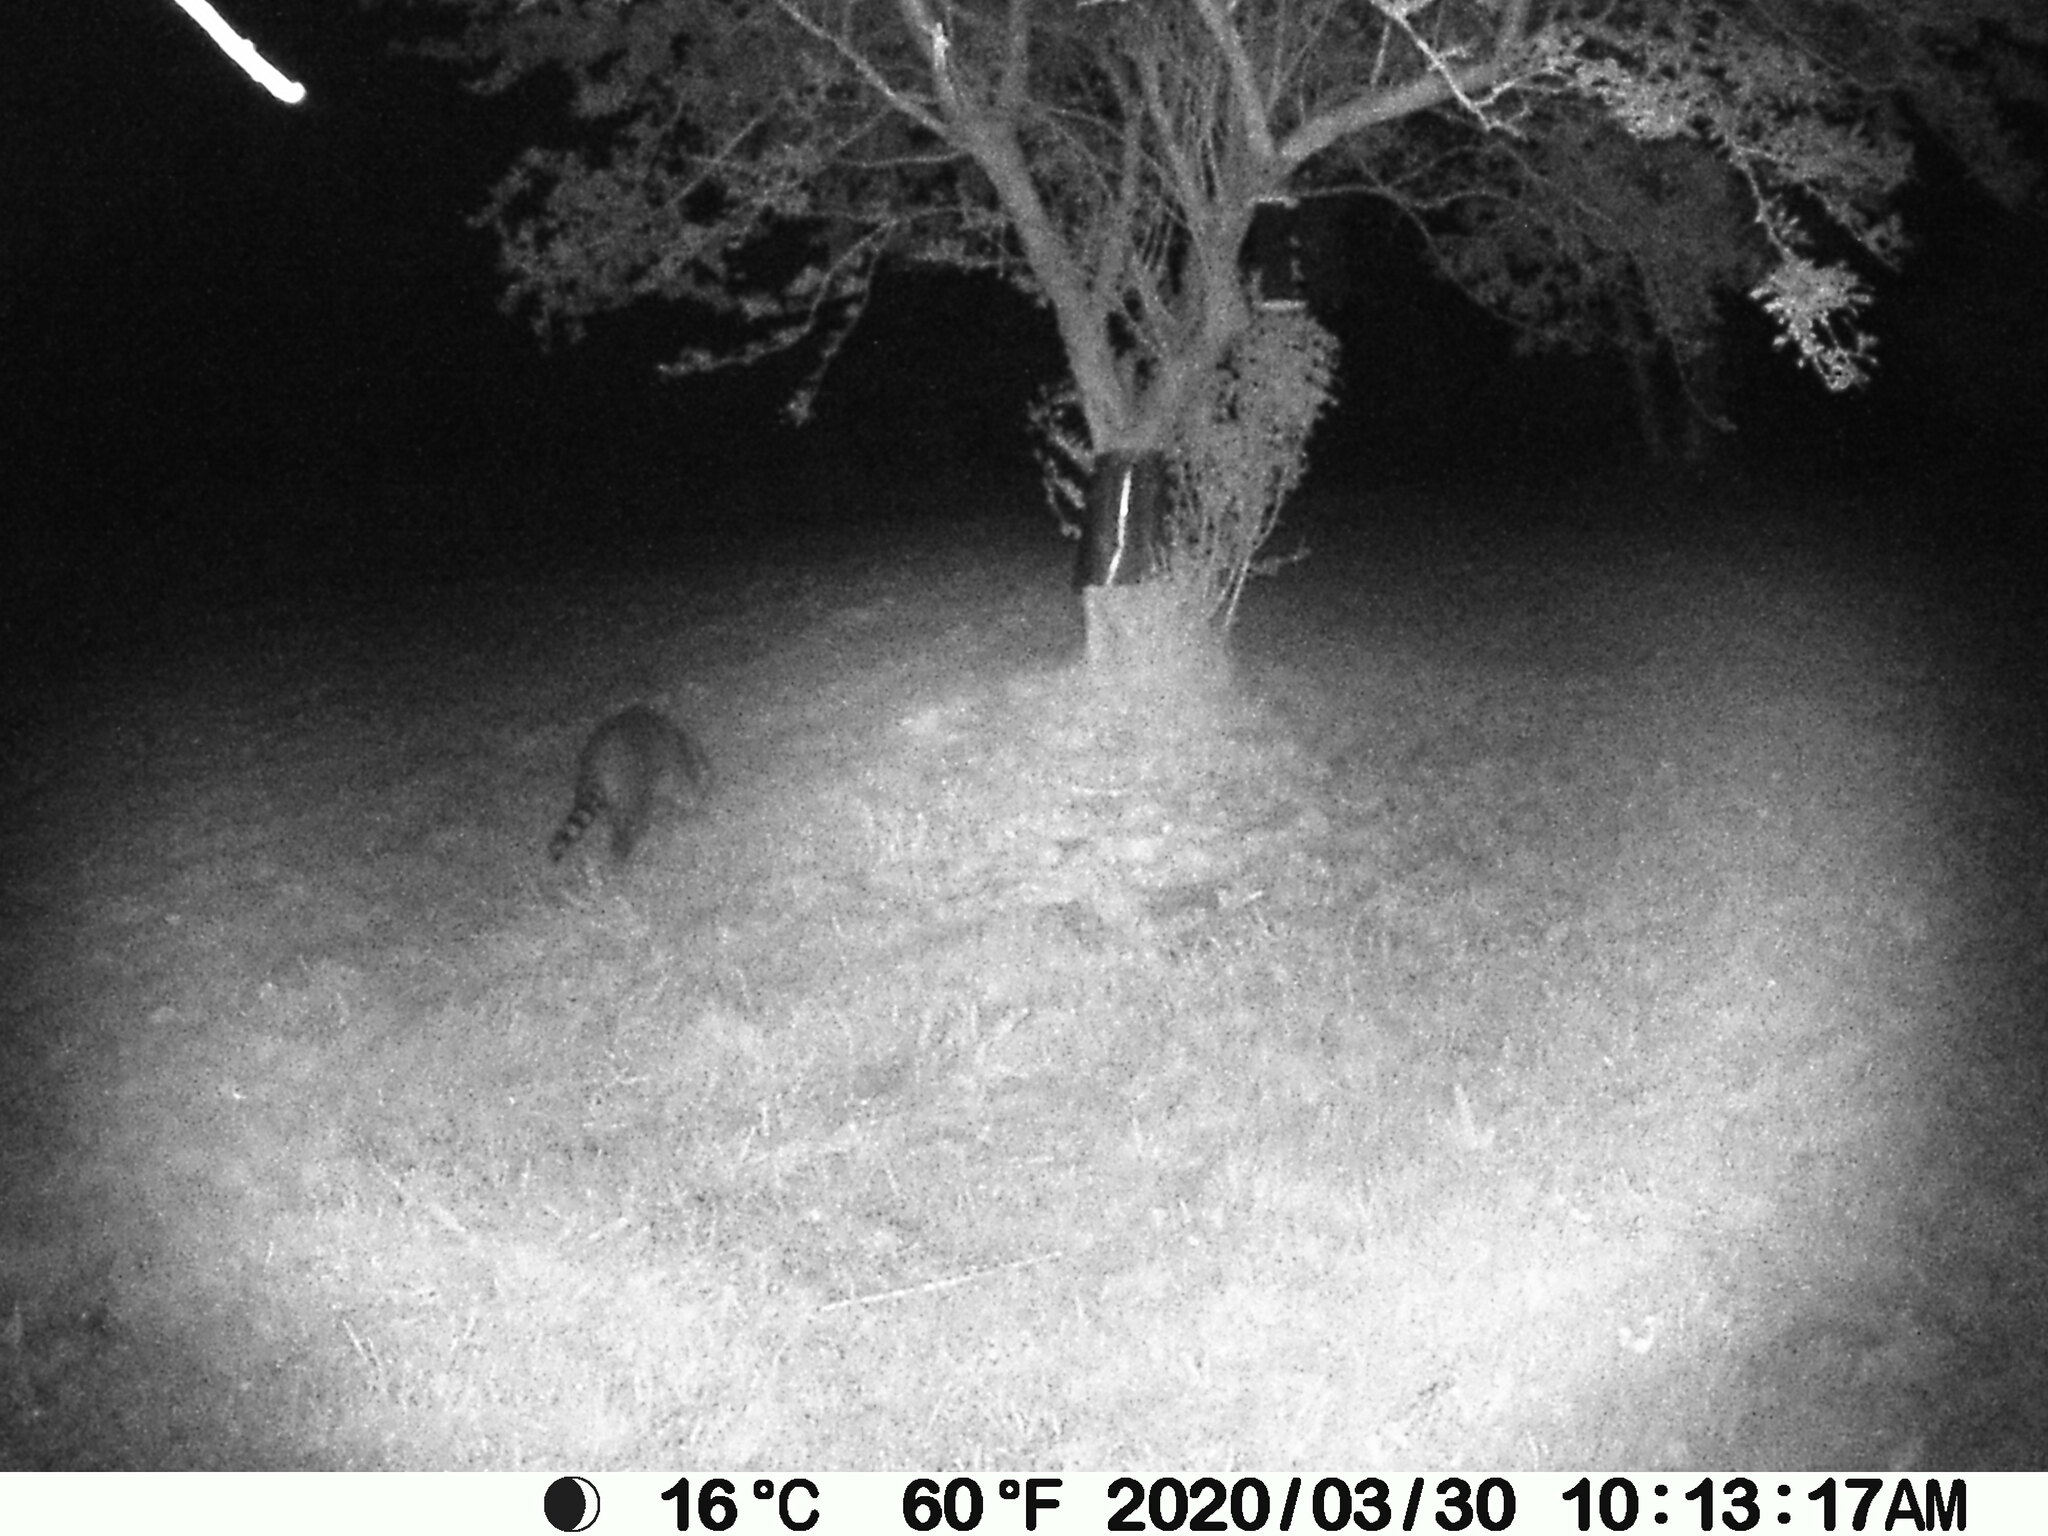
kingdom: Animalia
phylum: Chordata
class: Mammalia
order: Carnivora
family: Procyonidae
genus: Procyon
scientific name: Procyon lotor
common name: Raccoon
